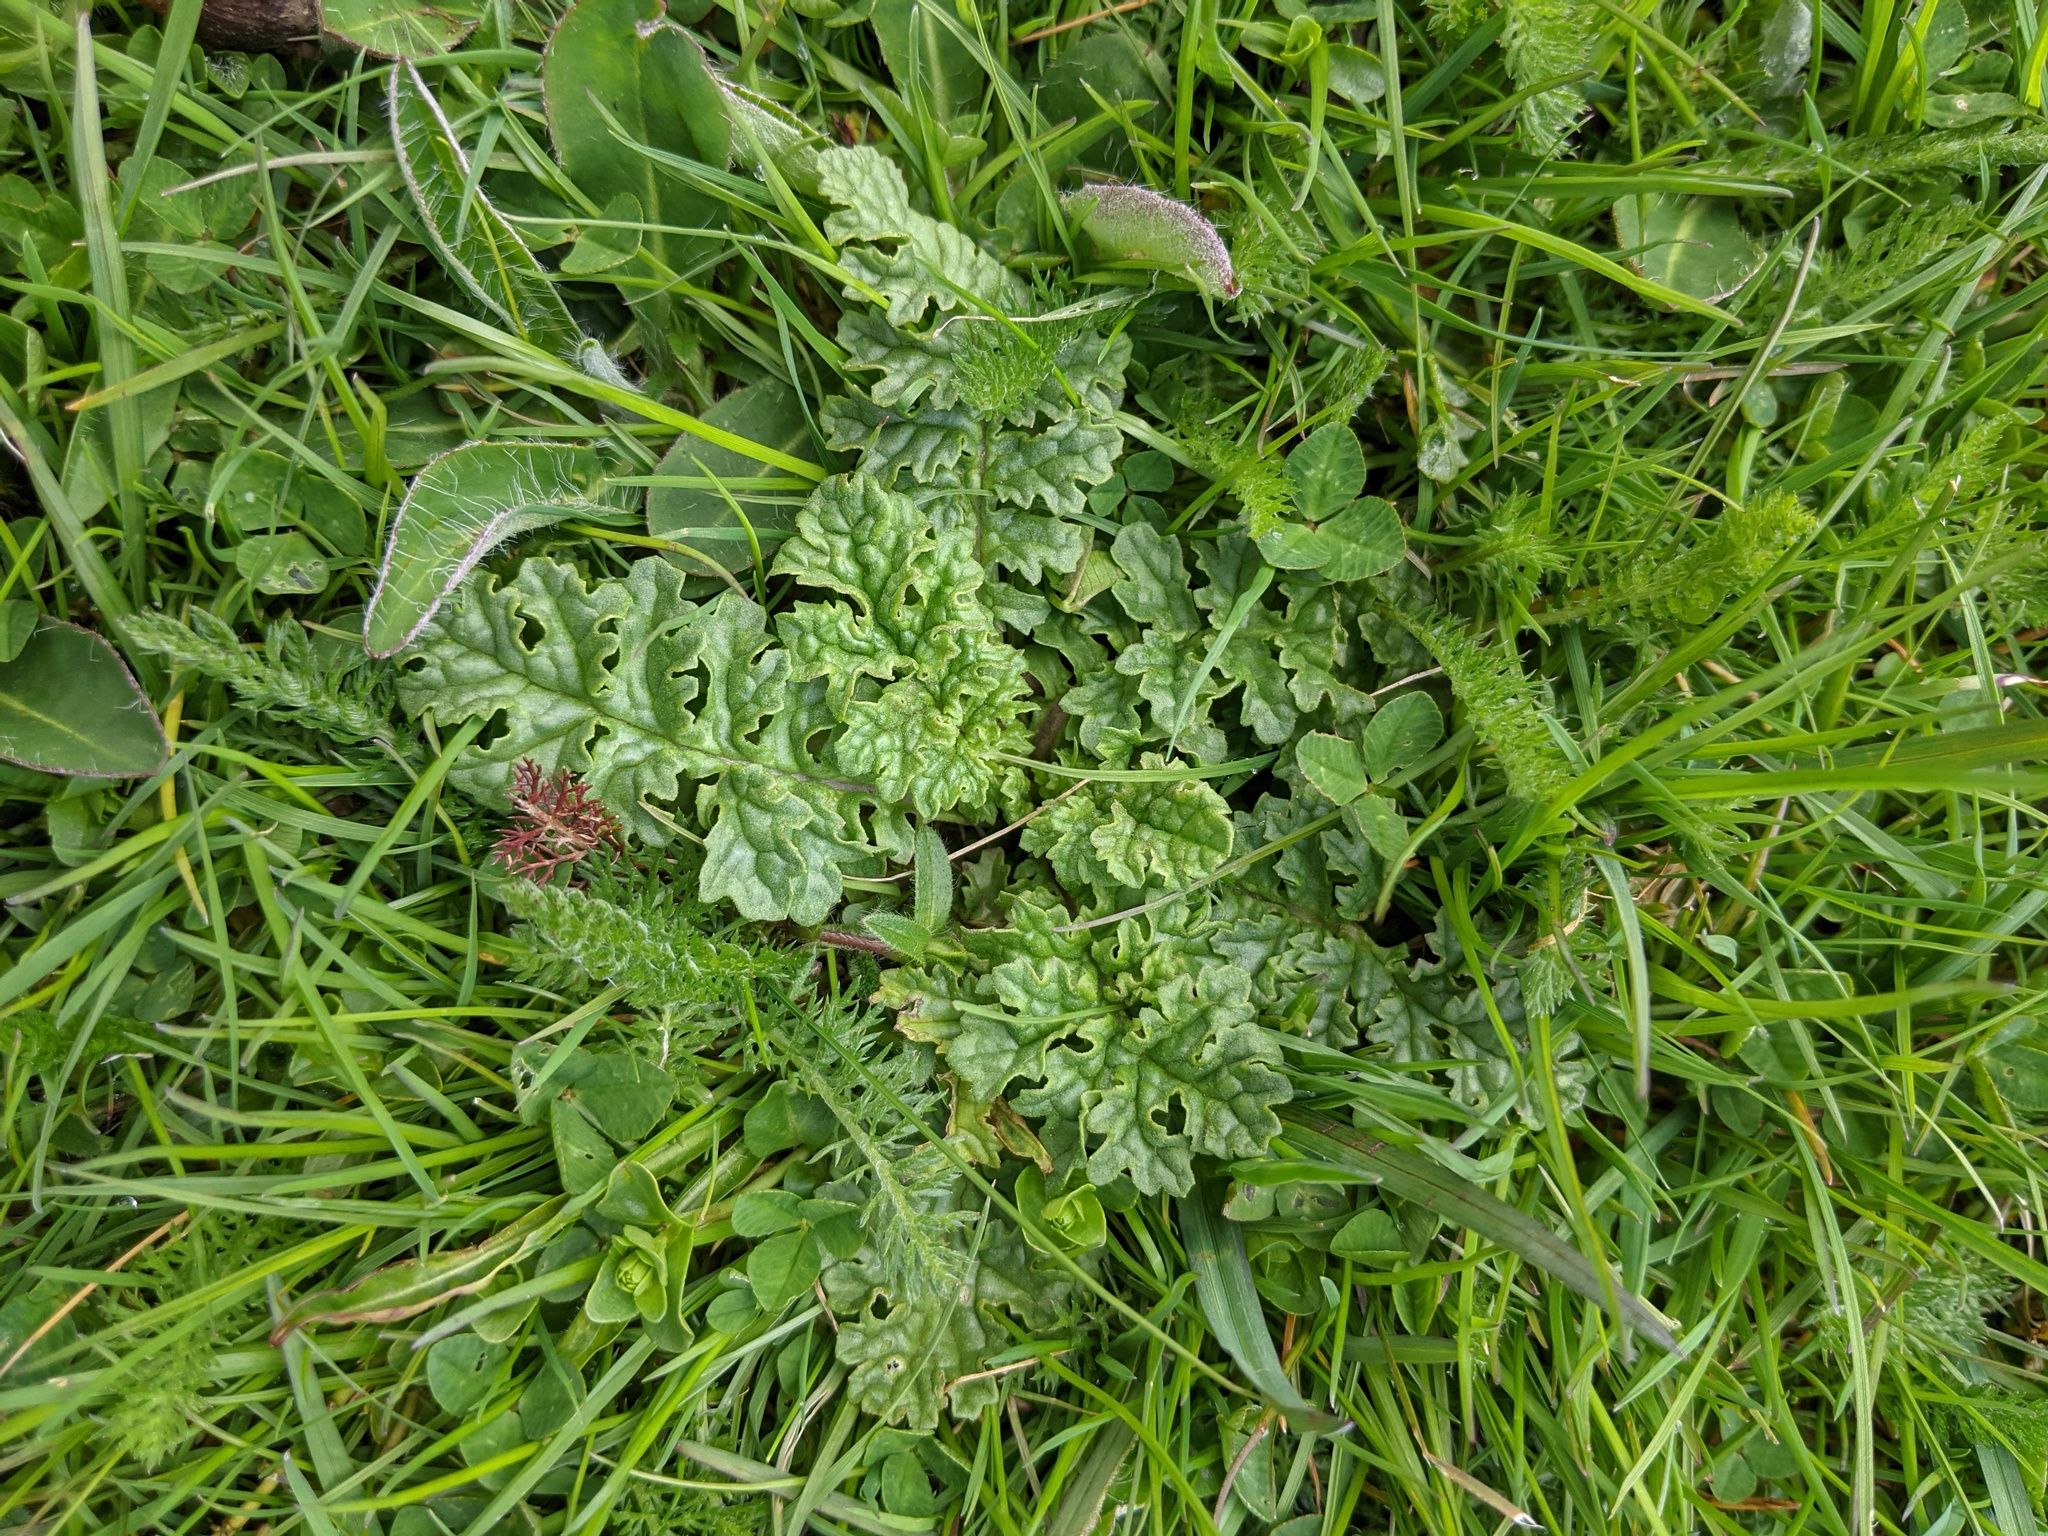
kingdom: Plantae
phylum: Tracheophyta
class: Magnoliopsida
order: Asterales
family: Asteraceae
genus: Jacobaea
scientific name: Jacobaea vulgaris
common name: Stinking willie
